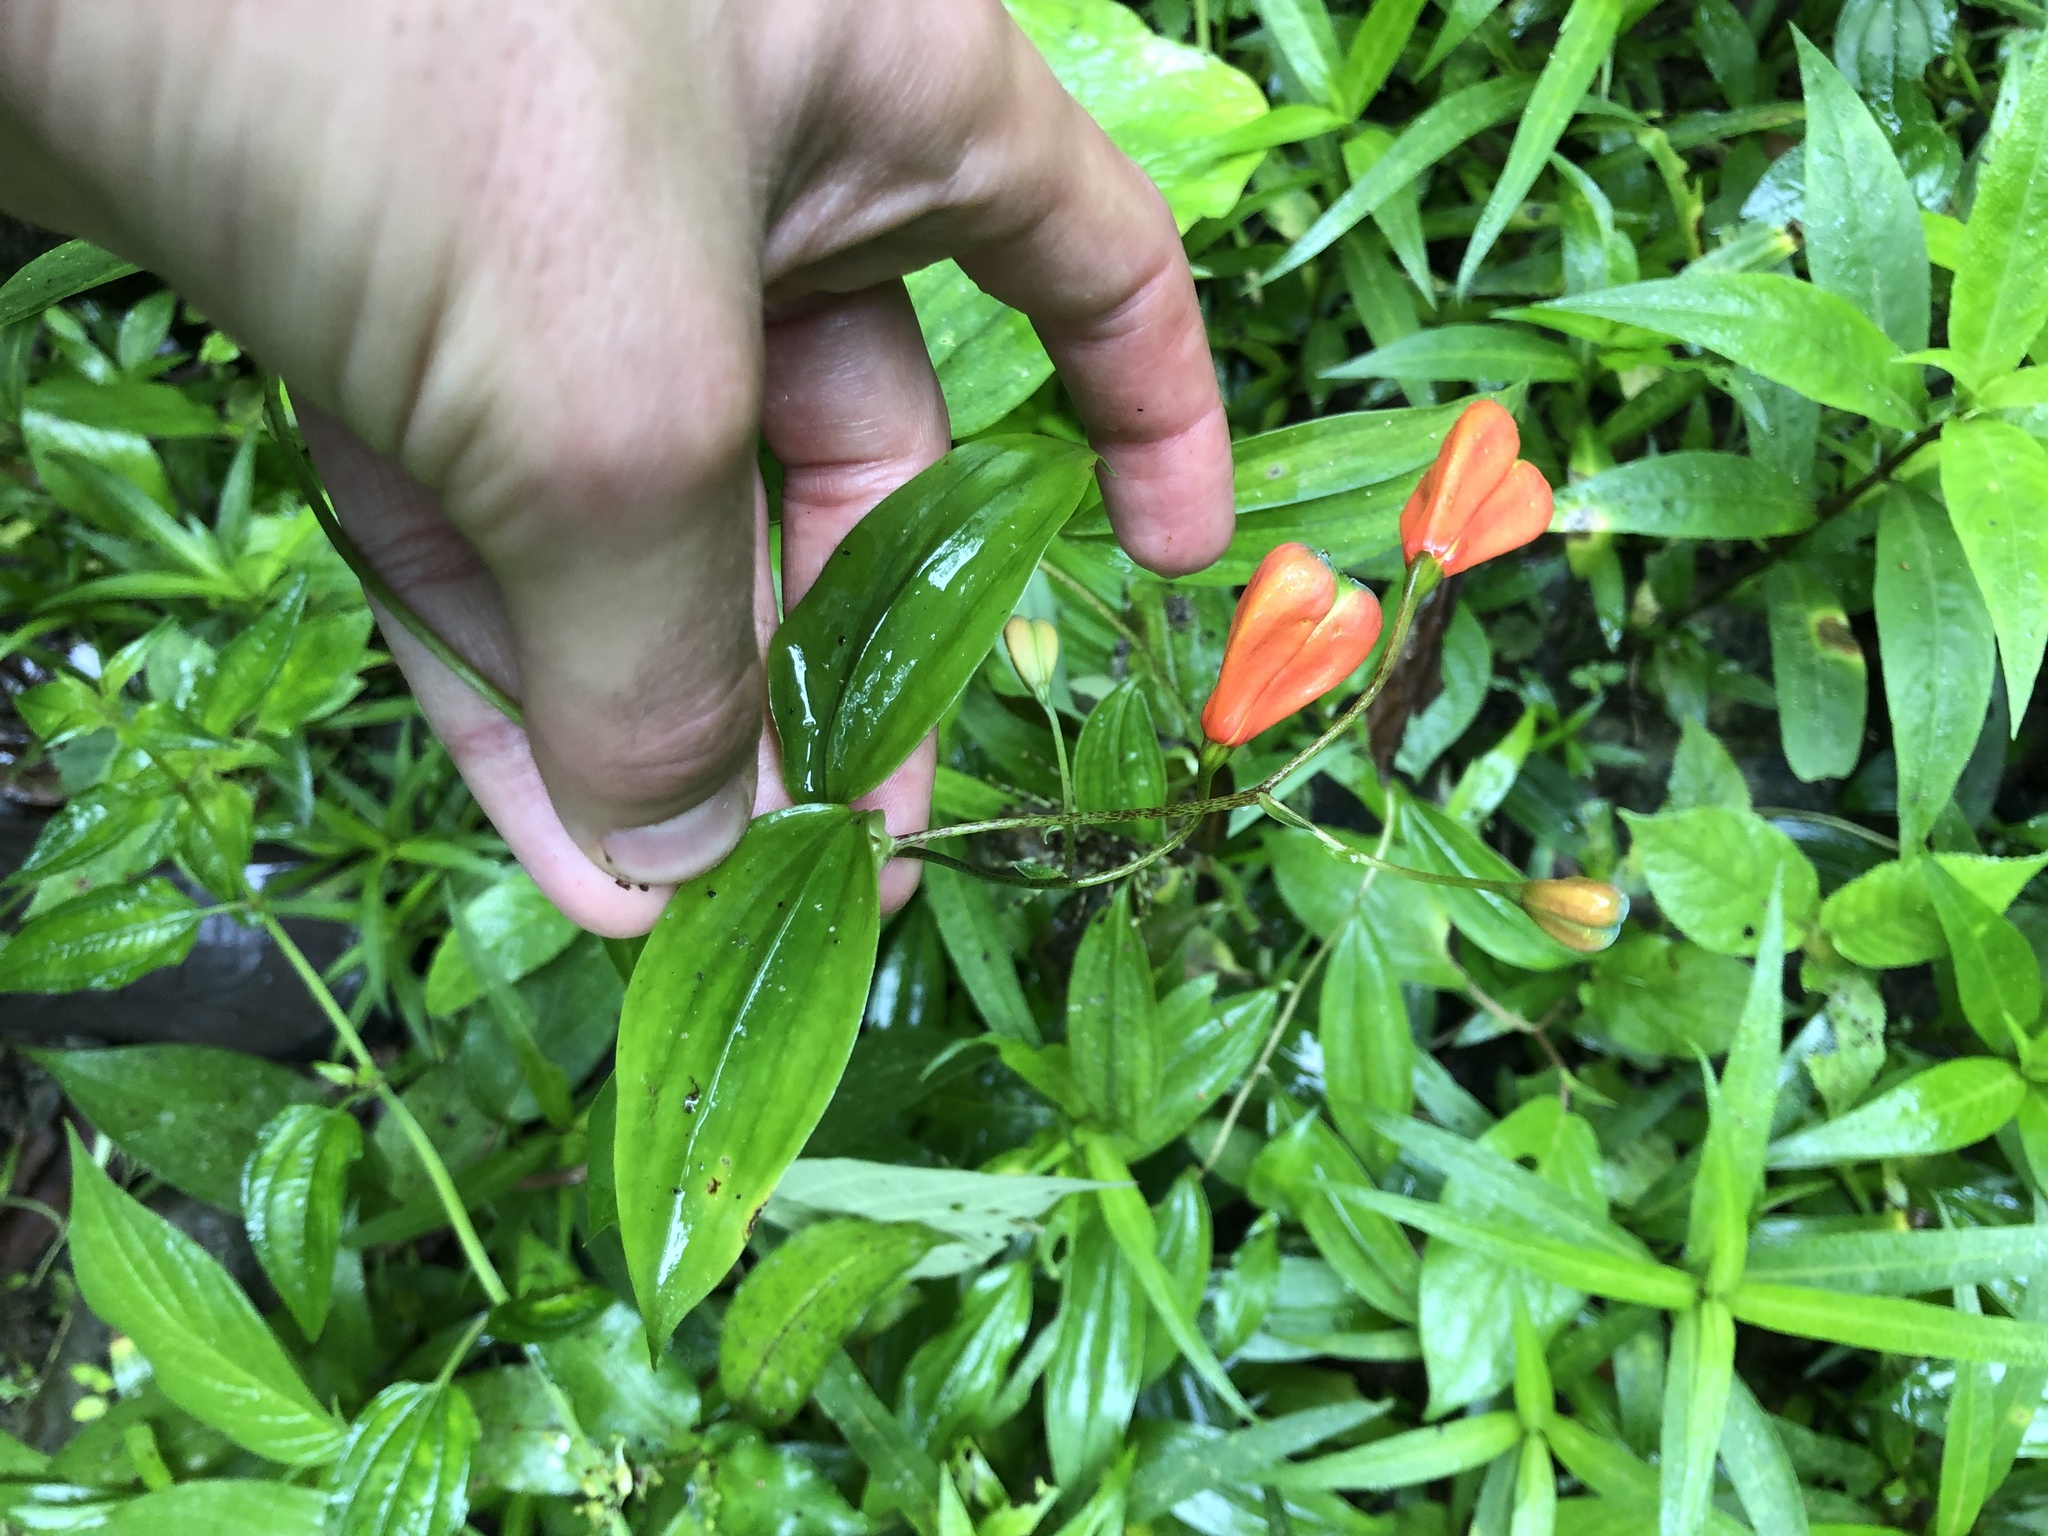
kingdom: Plantae
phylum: Tracheophyta
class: Liliopsida
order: Liliales
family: Alstroemeriaceae
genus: Bomarea
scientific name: Bomarea obovata
